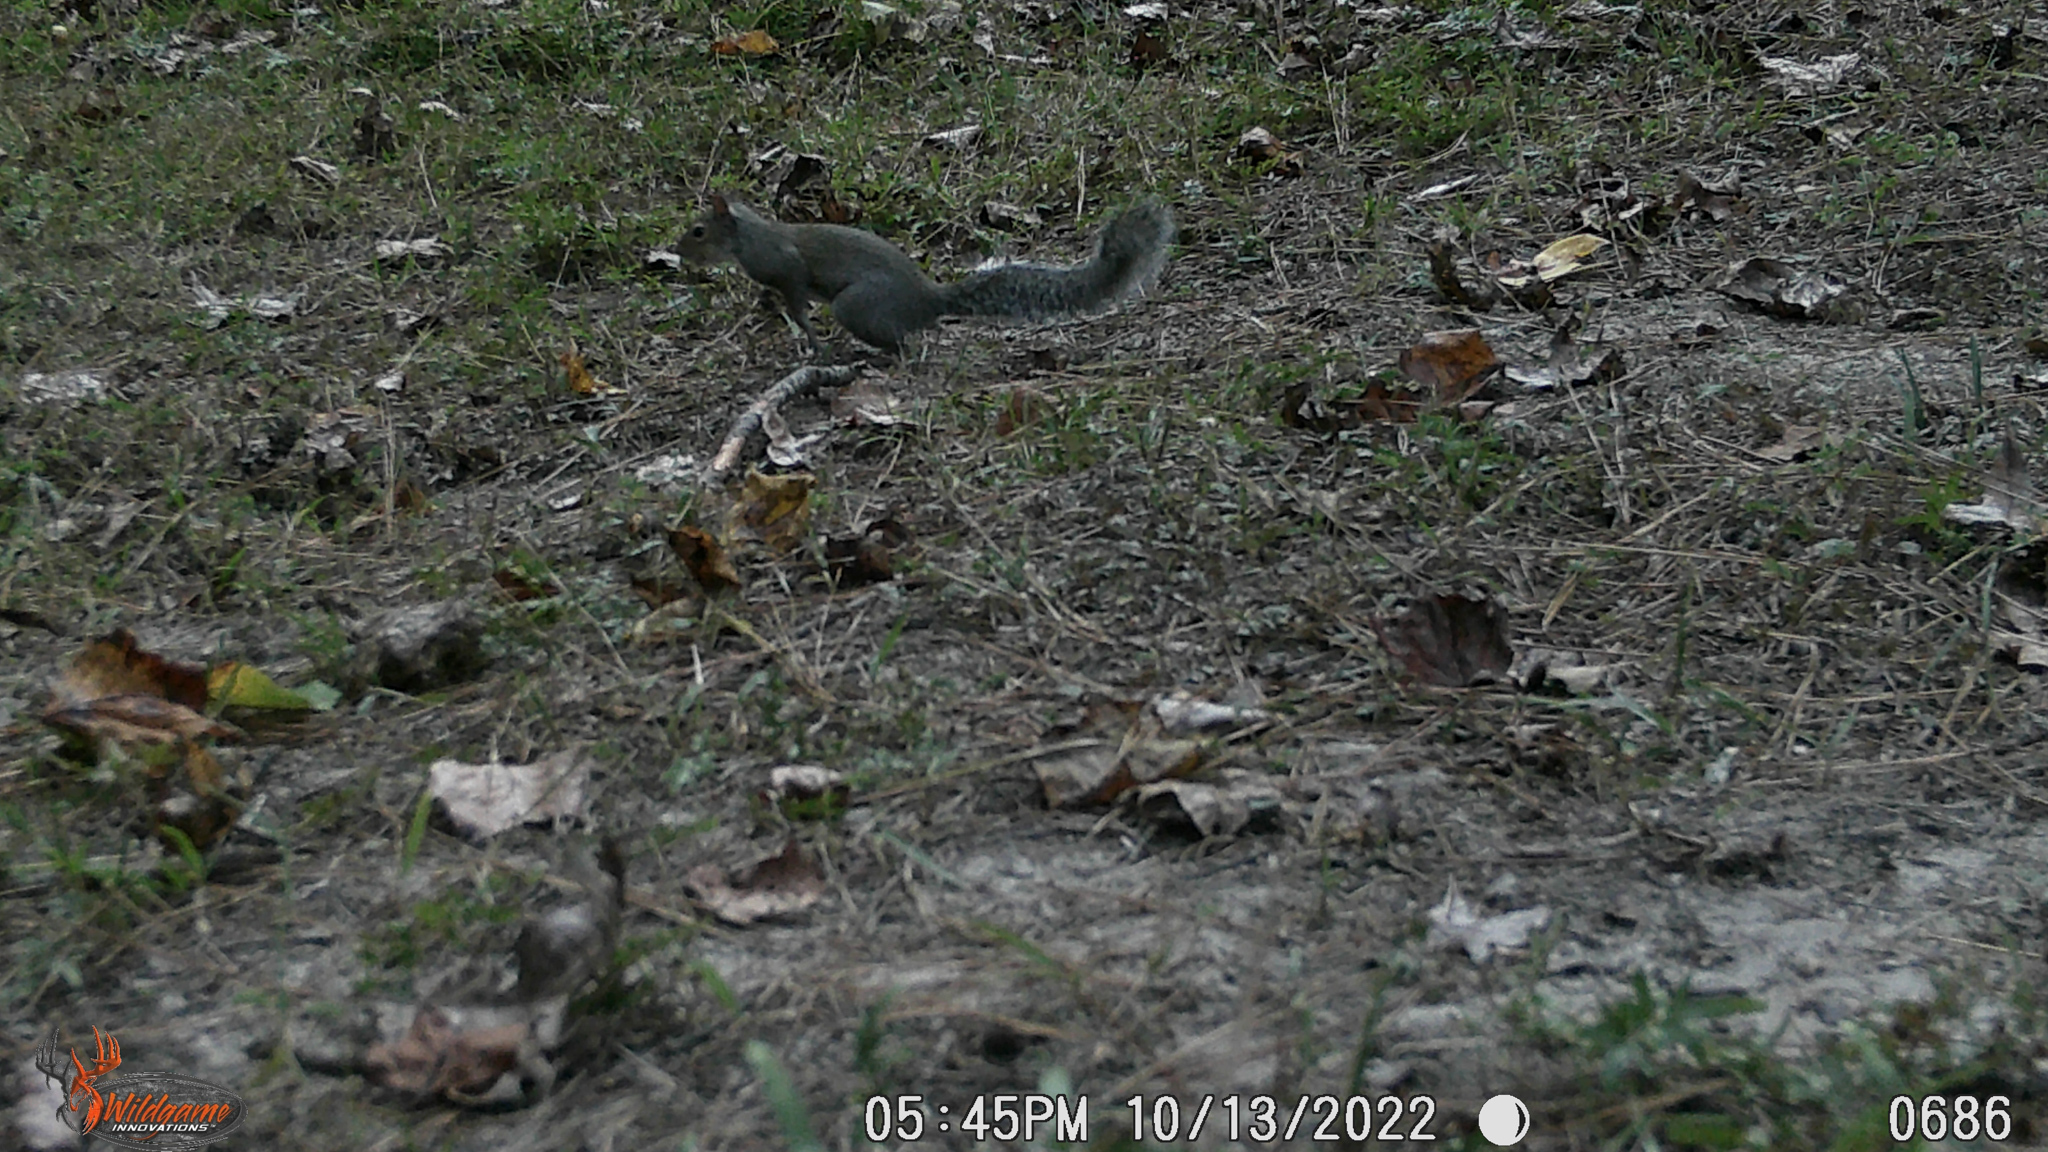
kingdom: Animalia
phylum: Chordata
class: Mammalia
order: Rodentia
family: Sciuridae
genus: Sciurus
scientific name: Sciurus carolinensis
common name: Eastern gray squirrel
